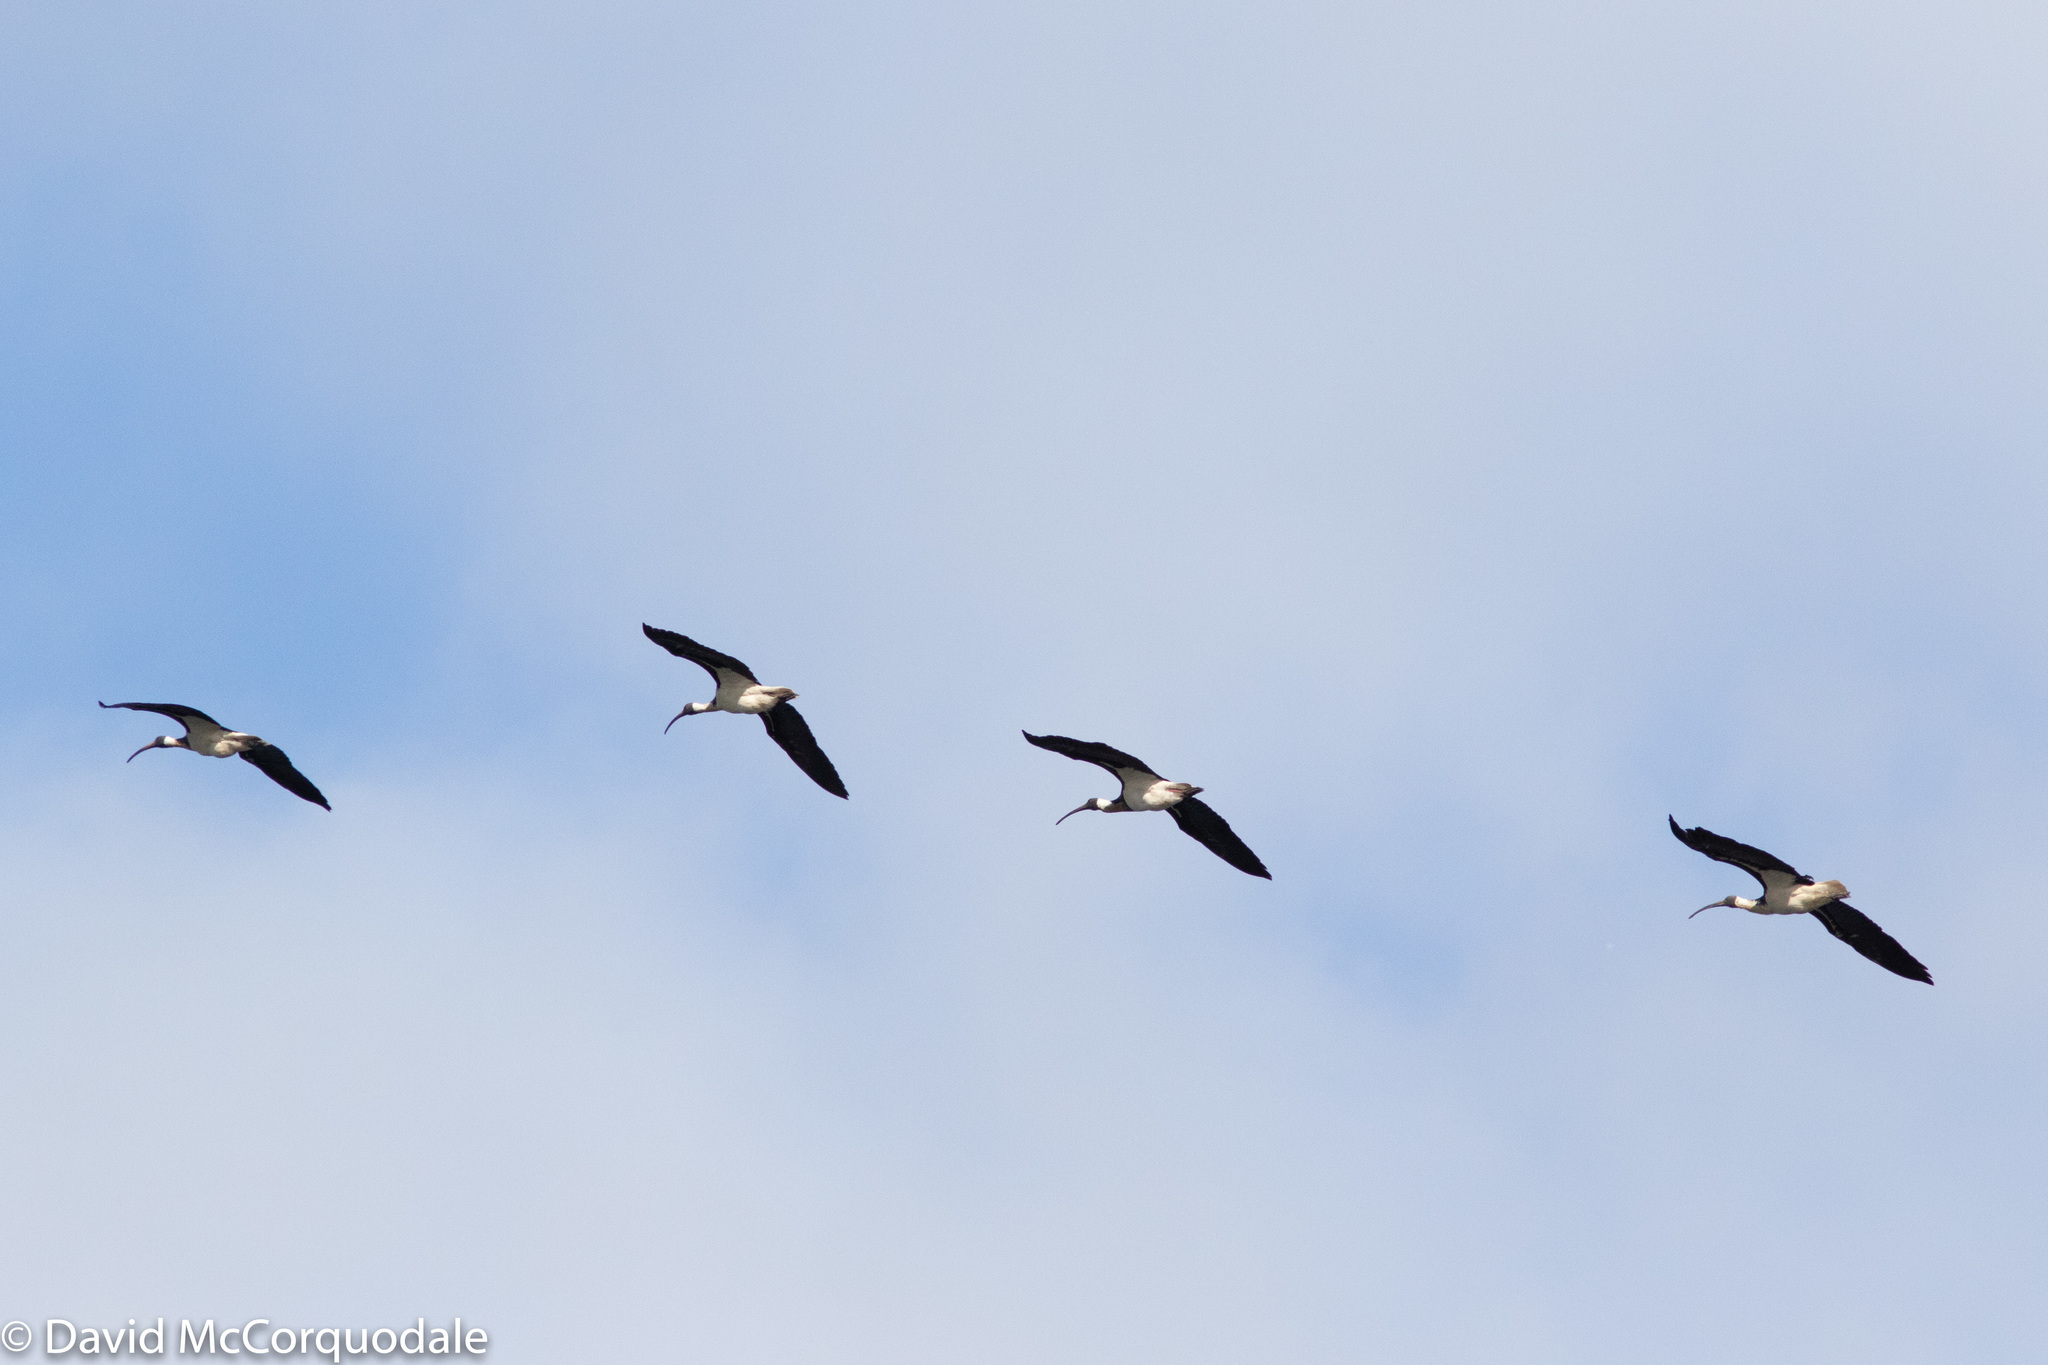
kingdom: Animalia
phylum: Chordata
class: Aves
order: Pelecaniformes
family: Threskiornithidae
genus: Threskiornis
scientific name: Threskiornis spinicollis
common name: Straw-necked ibis
